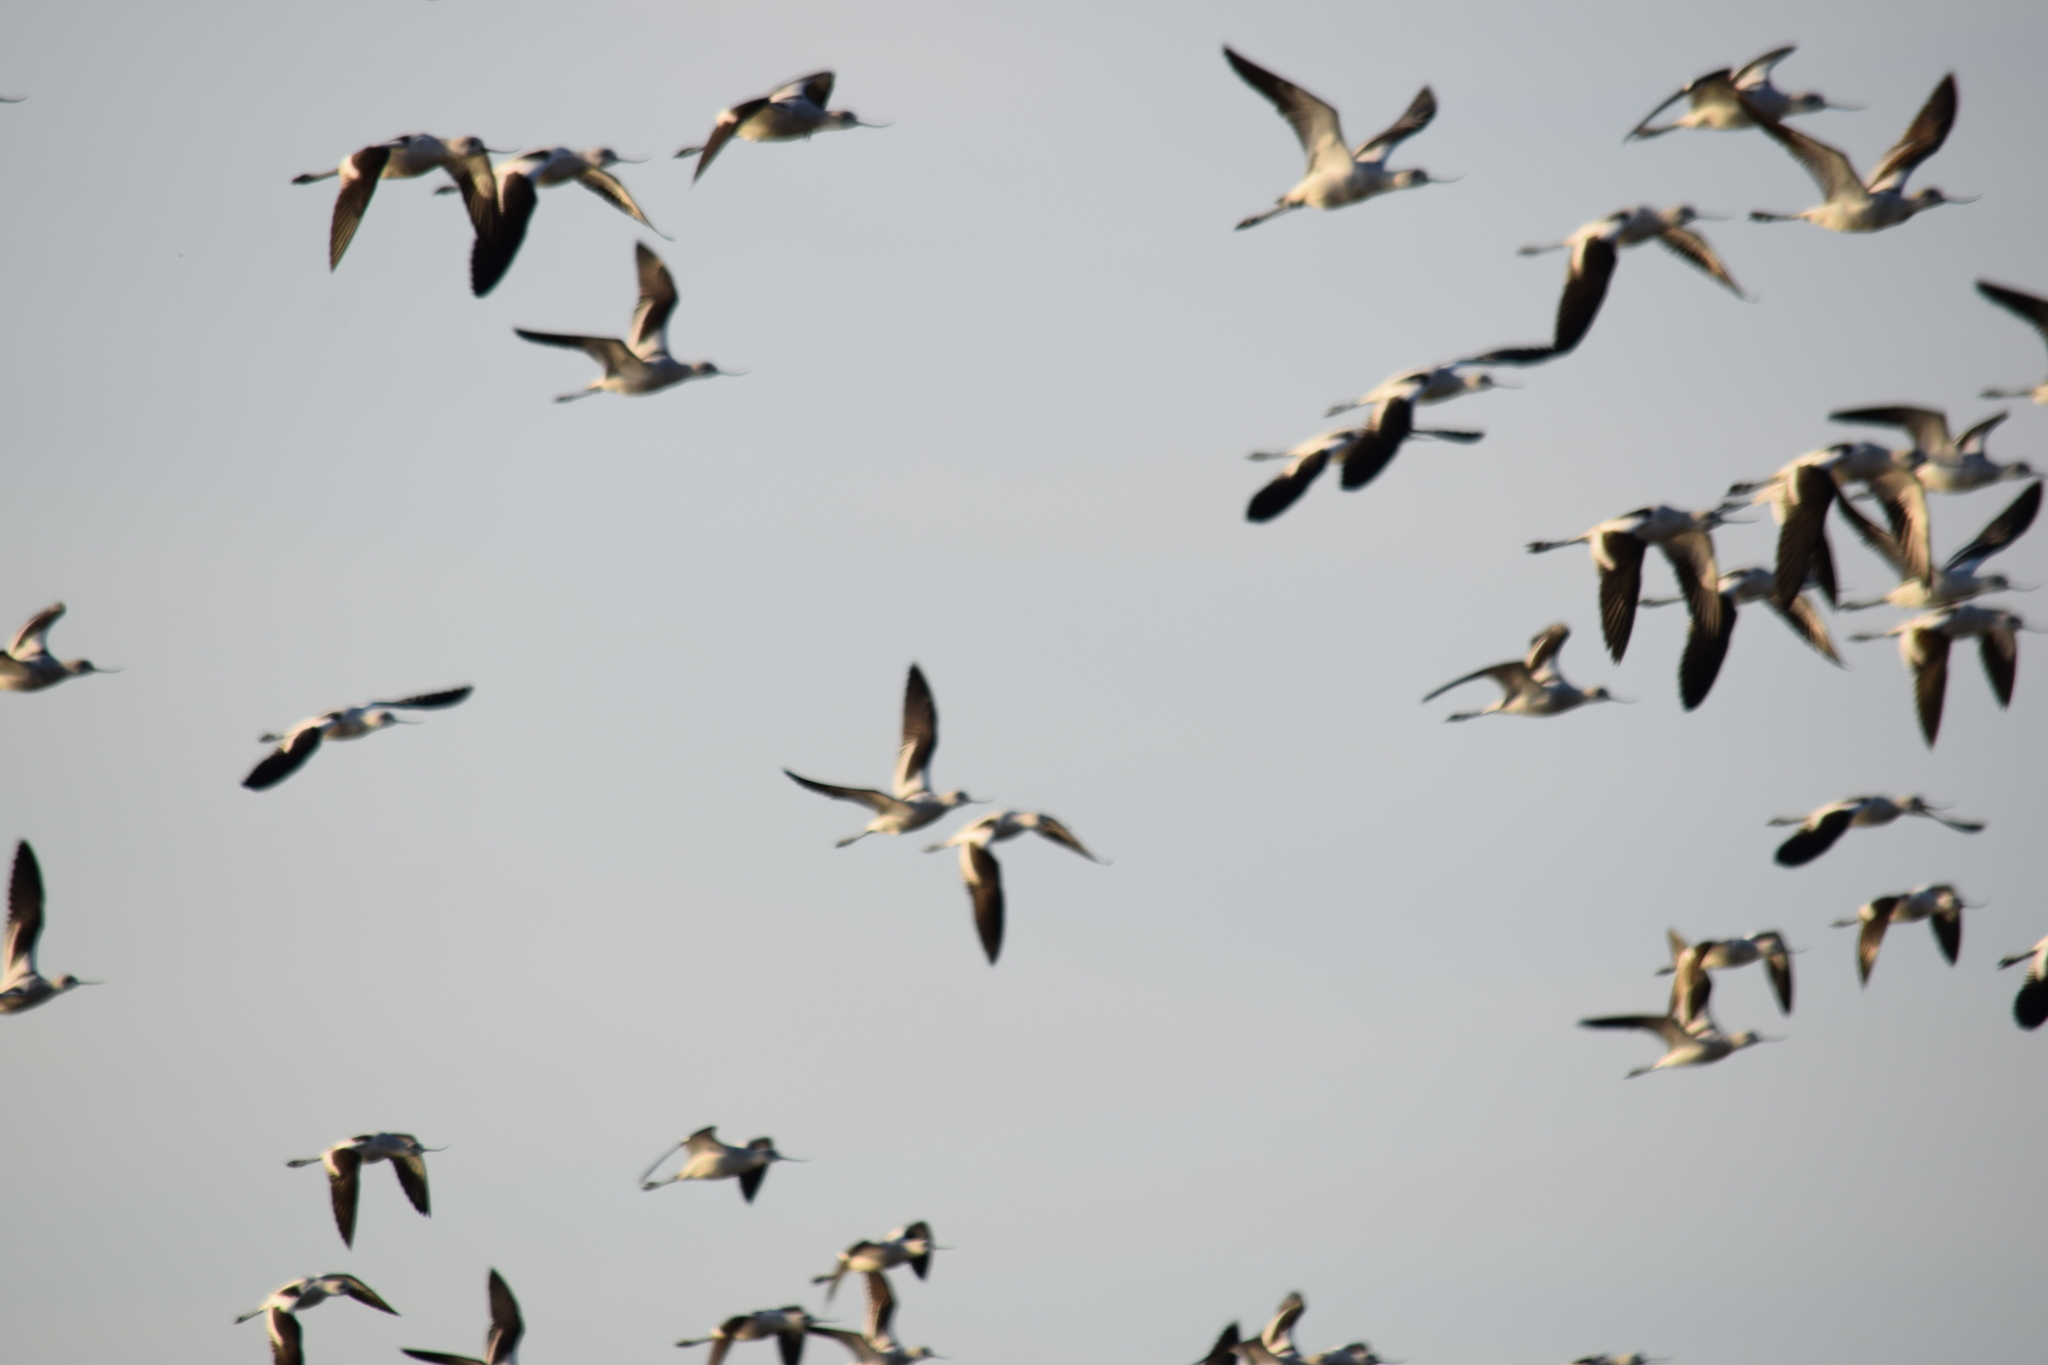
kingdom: Animalia
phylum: Chordata
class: Aves
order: Charadriiformes
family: Recurvirostridae
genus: Recurvirostra
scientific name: Recurvirostra americana
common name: American avocet
